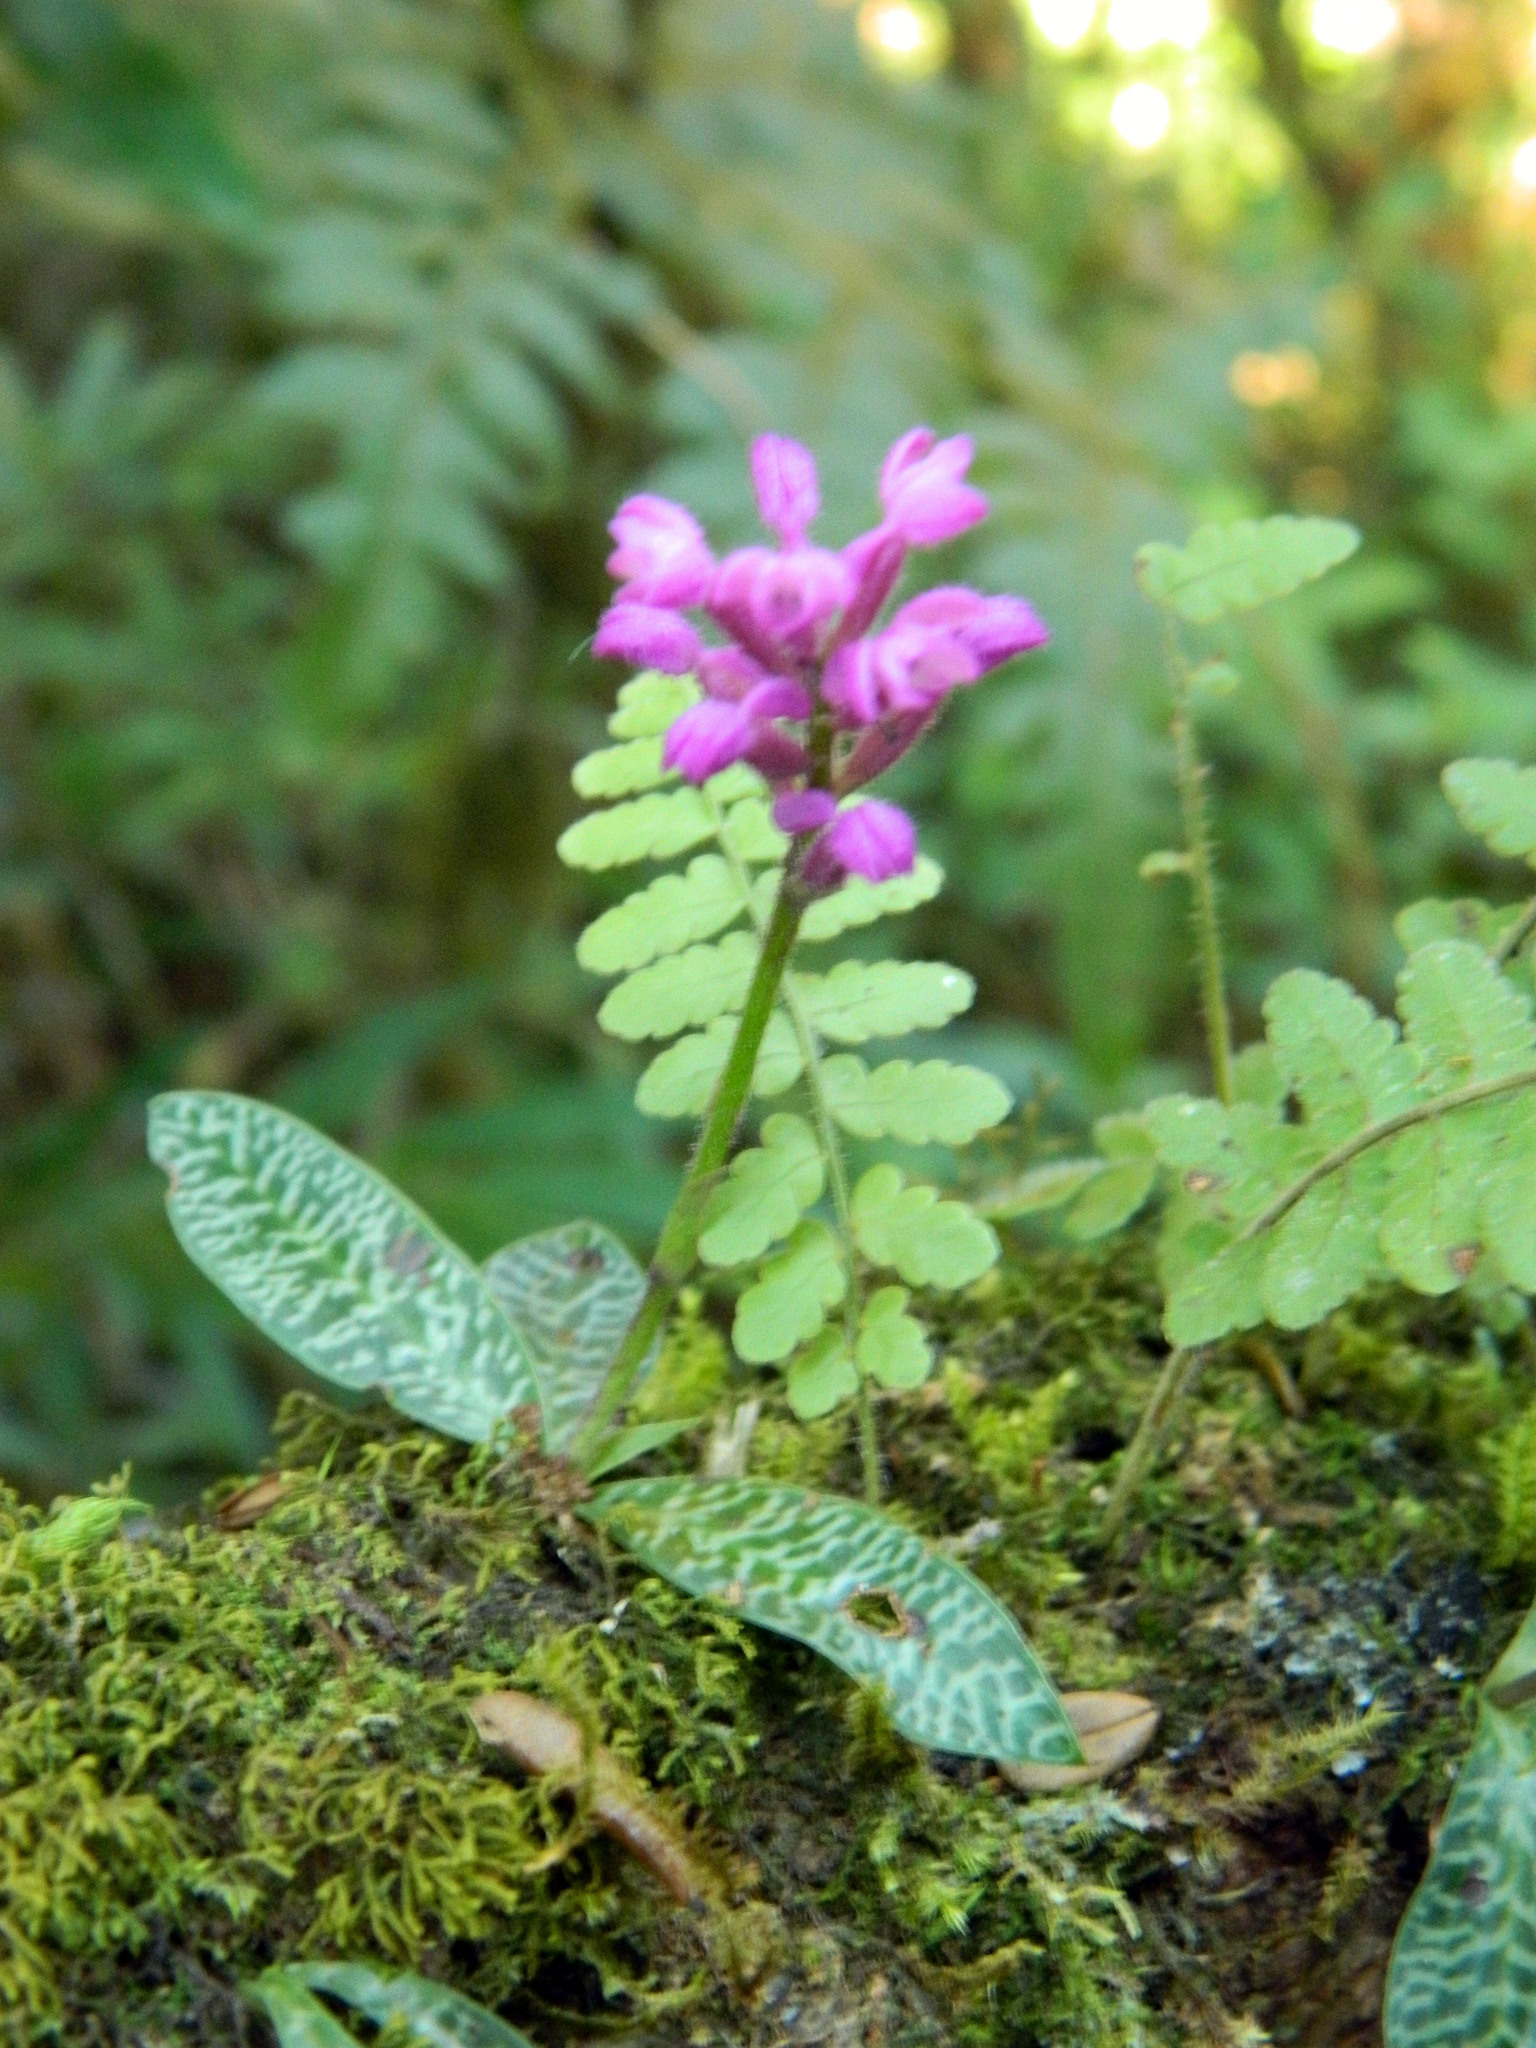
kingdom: Plantae
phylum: Tracheophyta
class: Liliopsida
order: Asparagales
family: Orchidaceae
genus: Cynorkis
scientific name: Cynorkis peyrotii
